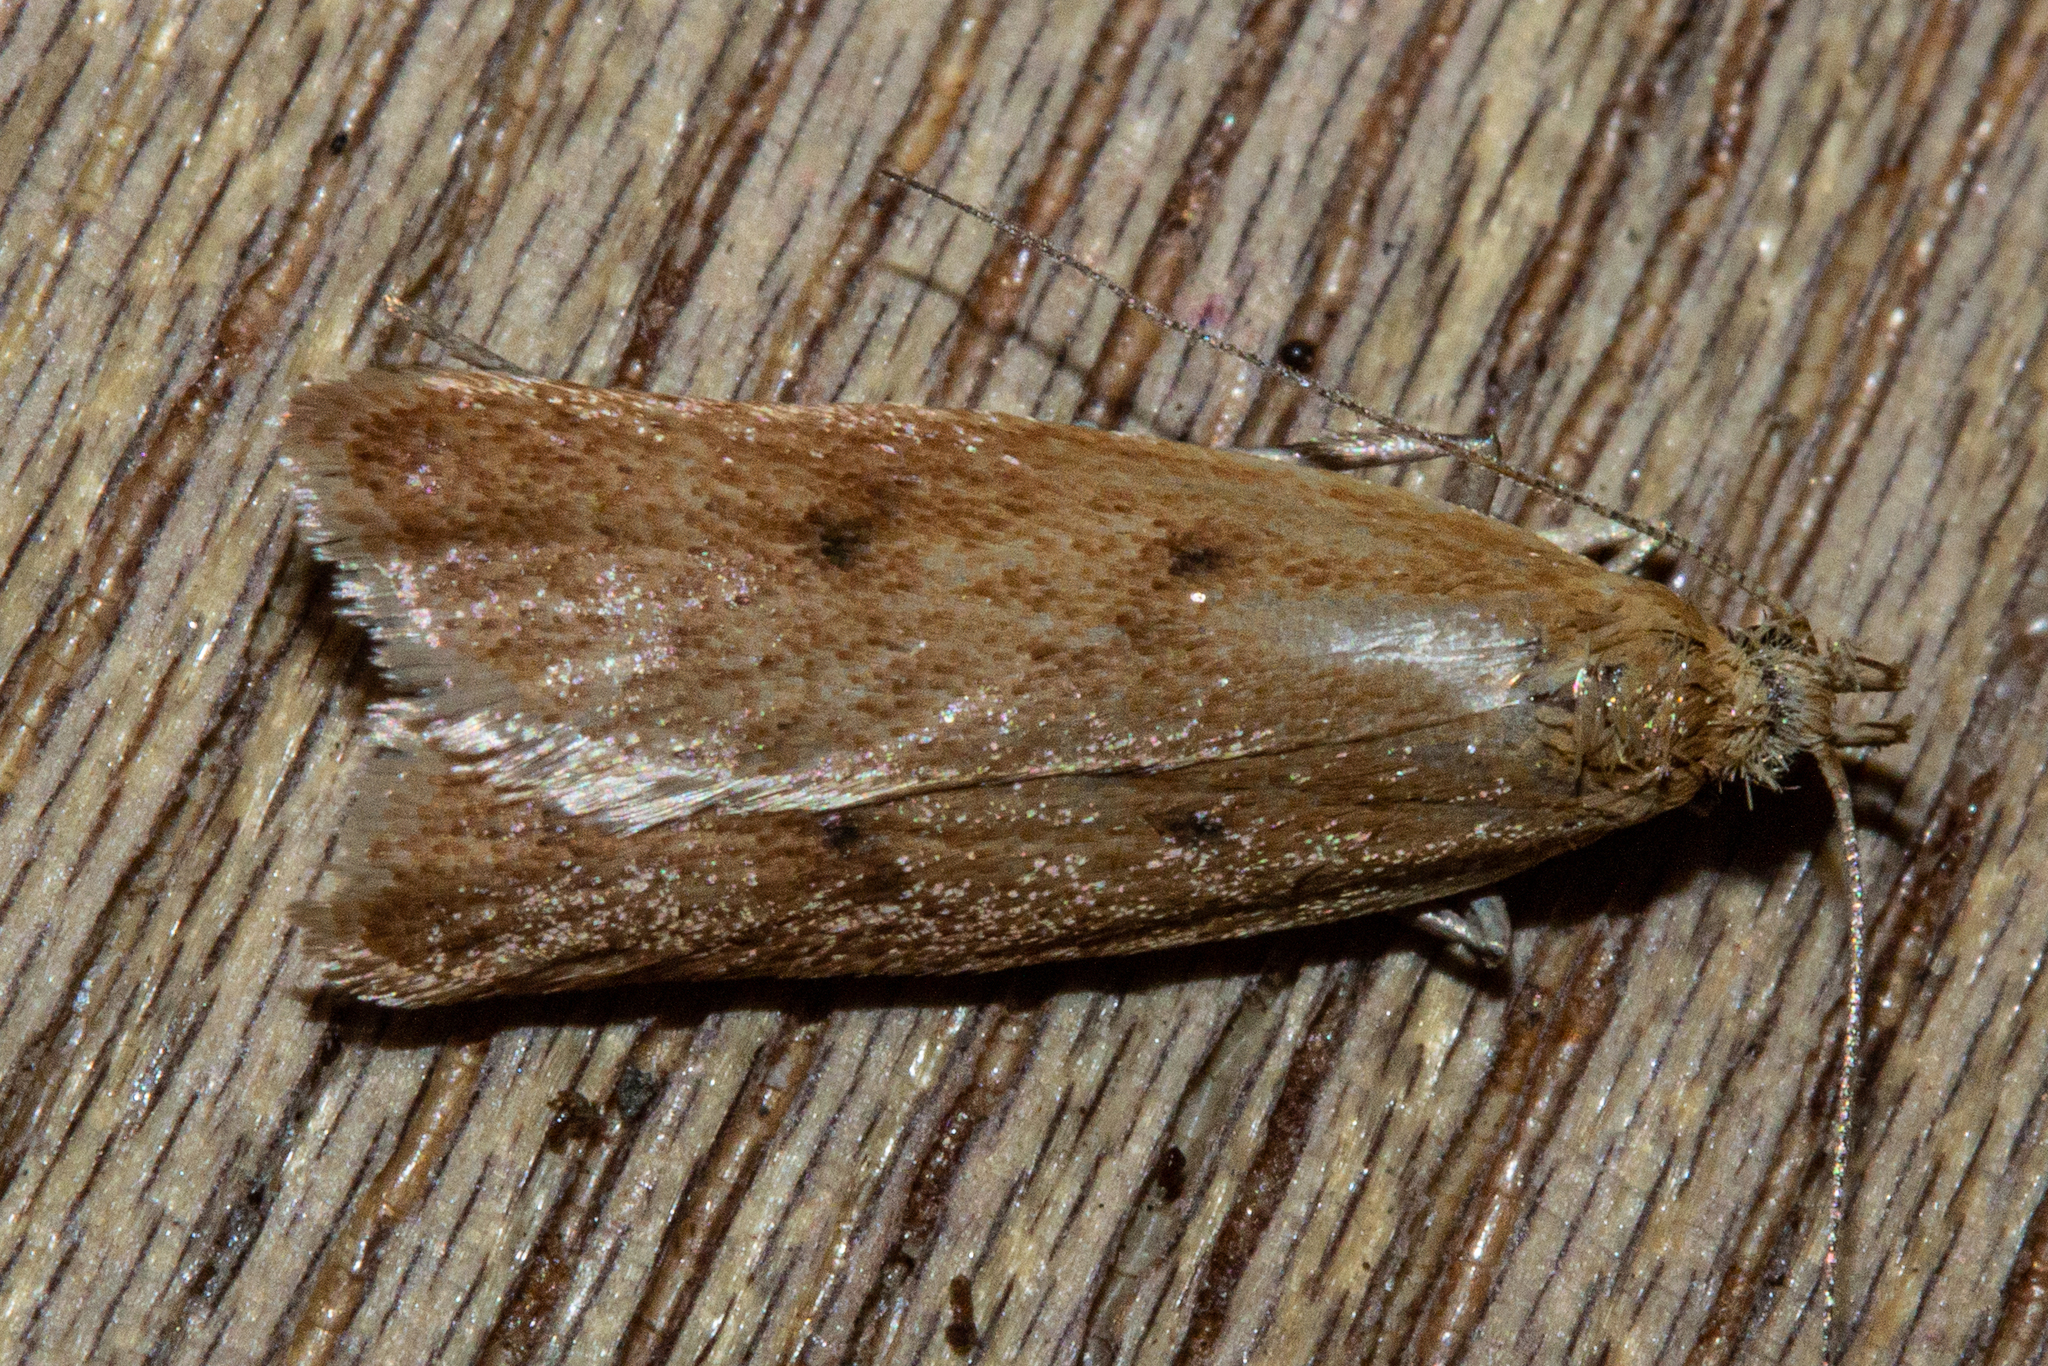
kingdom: Animalia
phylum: Arthropoda
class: Insecta
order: Lepidoptera
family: Oecophoridae
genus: Gymnobathra
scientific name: Gymnobathra sarcoxantha
